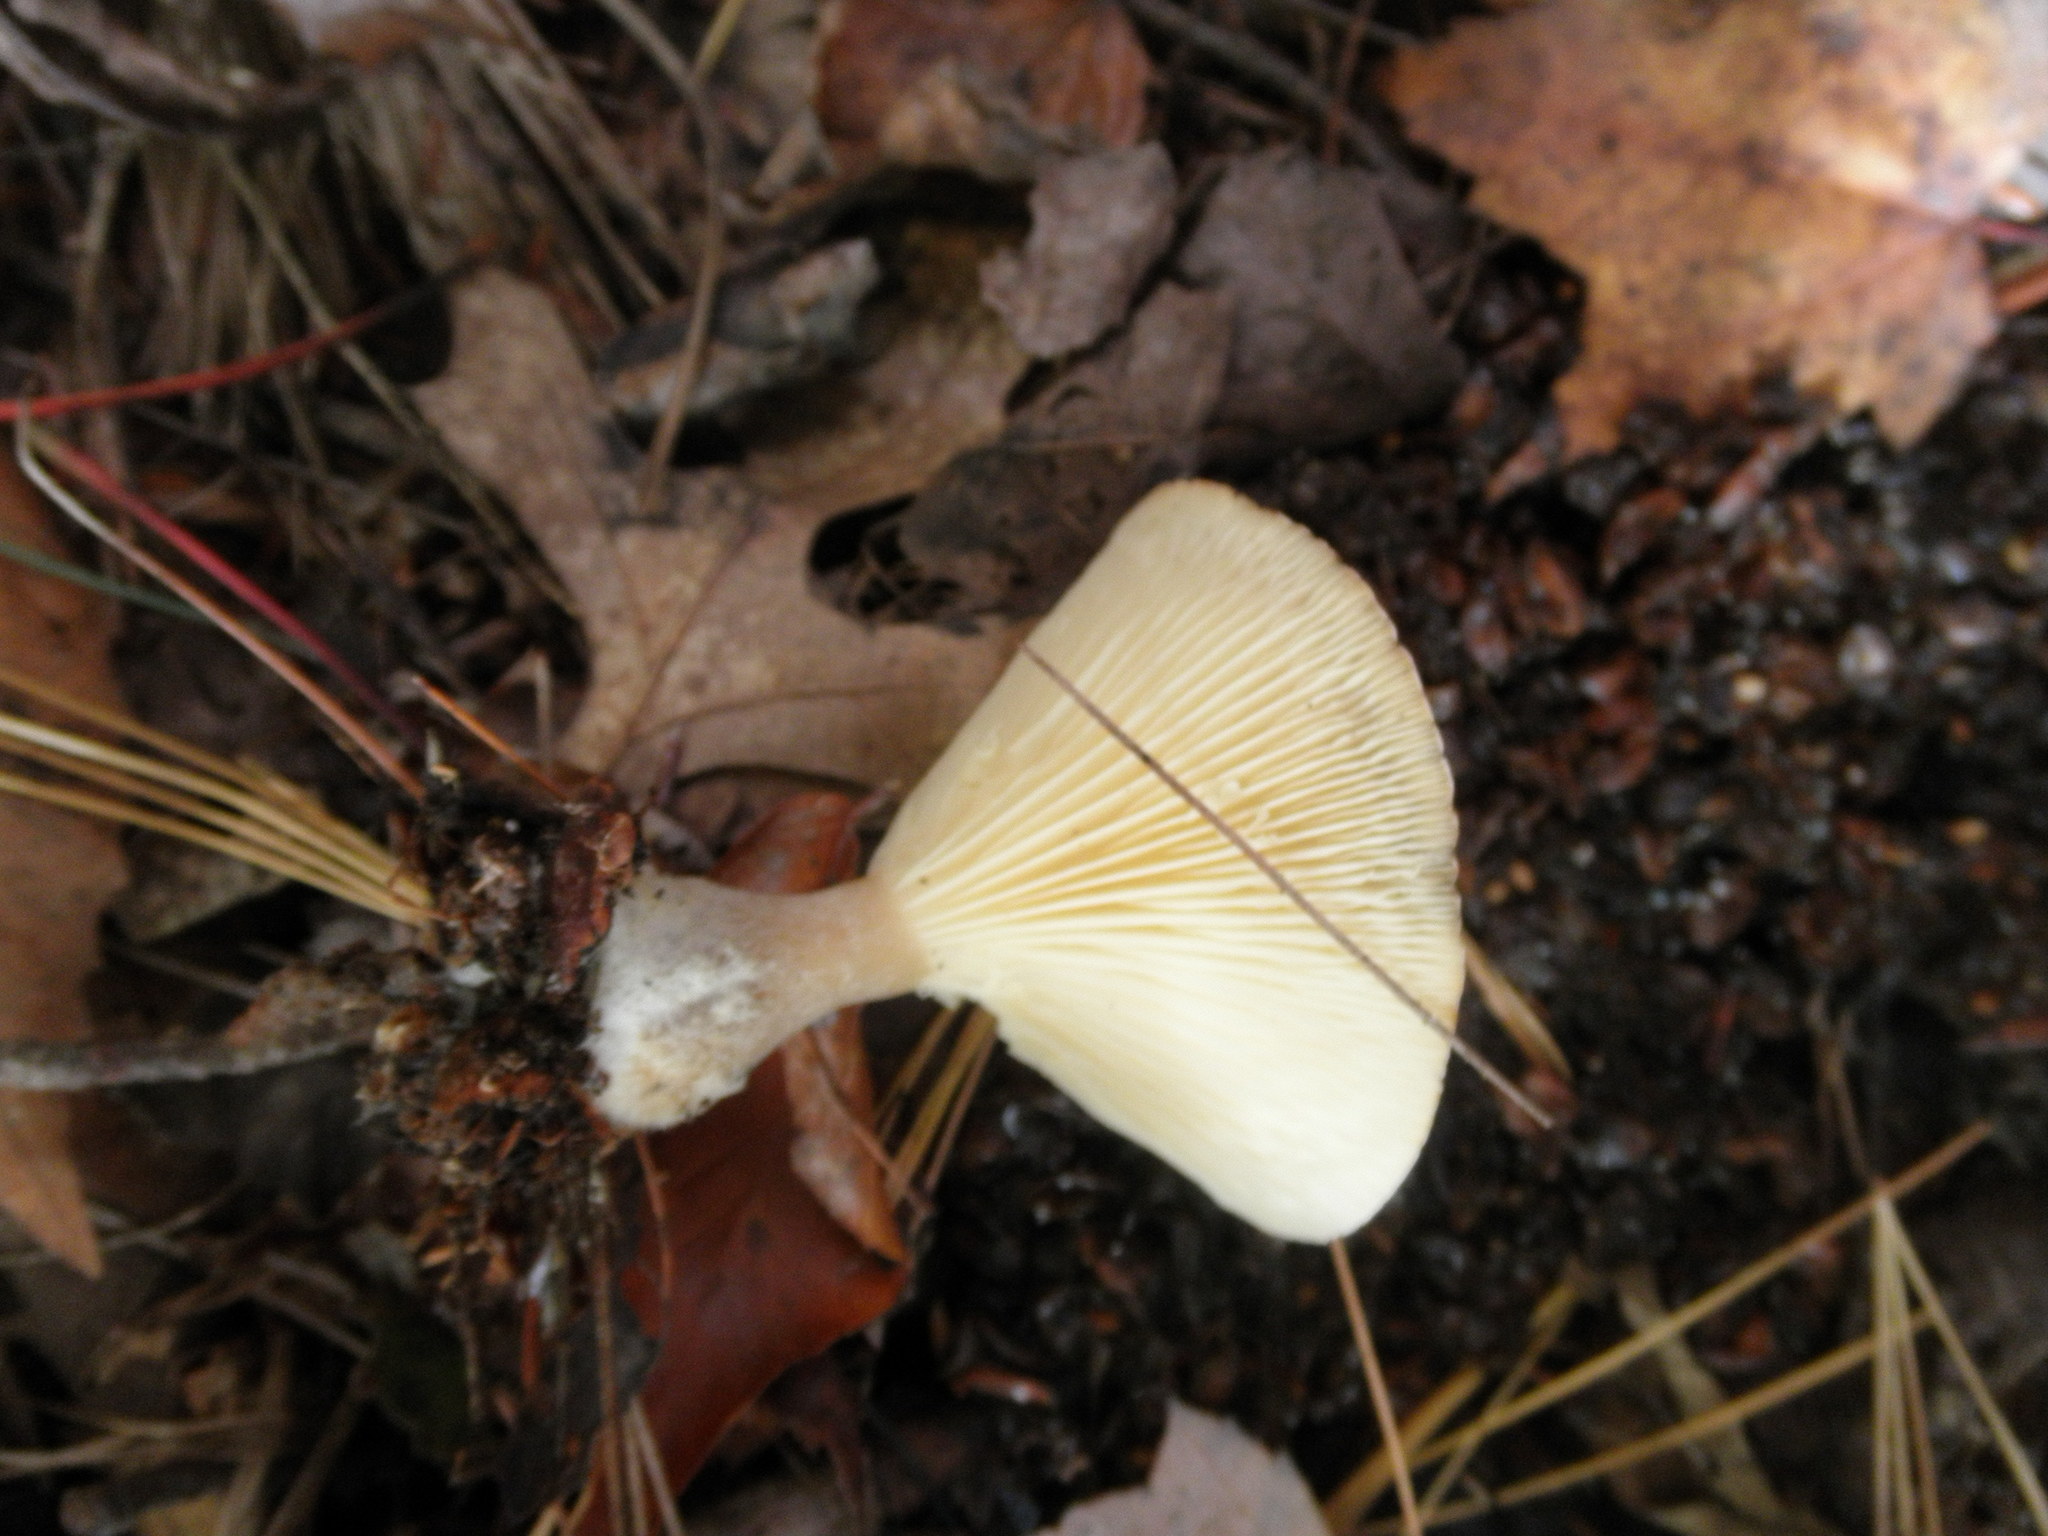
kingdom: Fungi
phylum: Basidiomycota
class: Agaricomycetes
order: Agaricales
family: Hygrophoraceae
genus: Ampulloclitocybe
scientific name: Ampulloclitocybe clavipes
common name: Club foot
